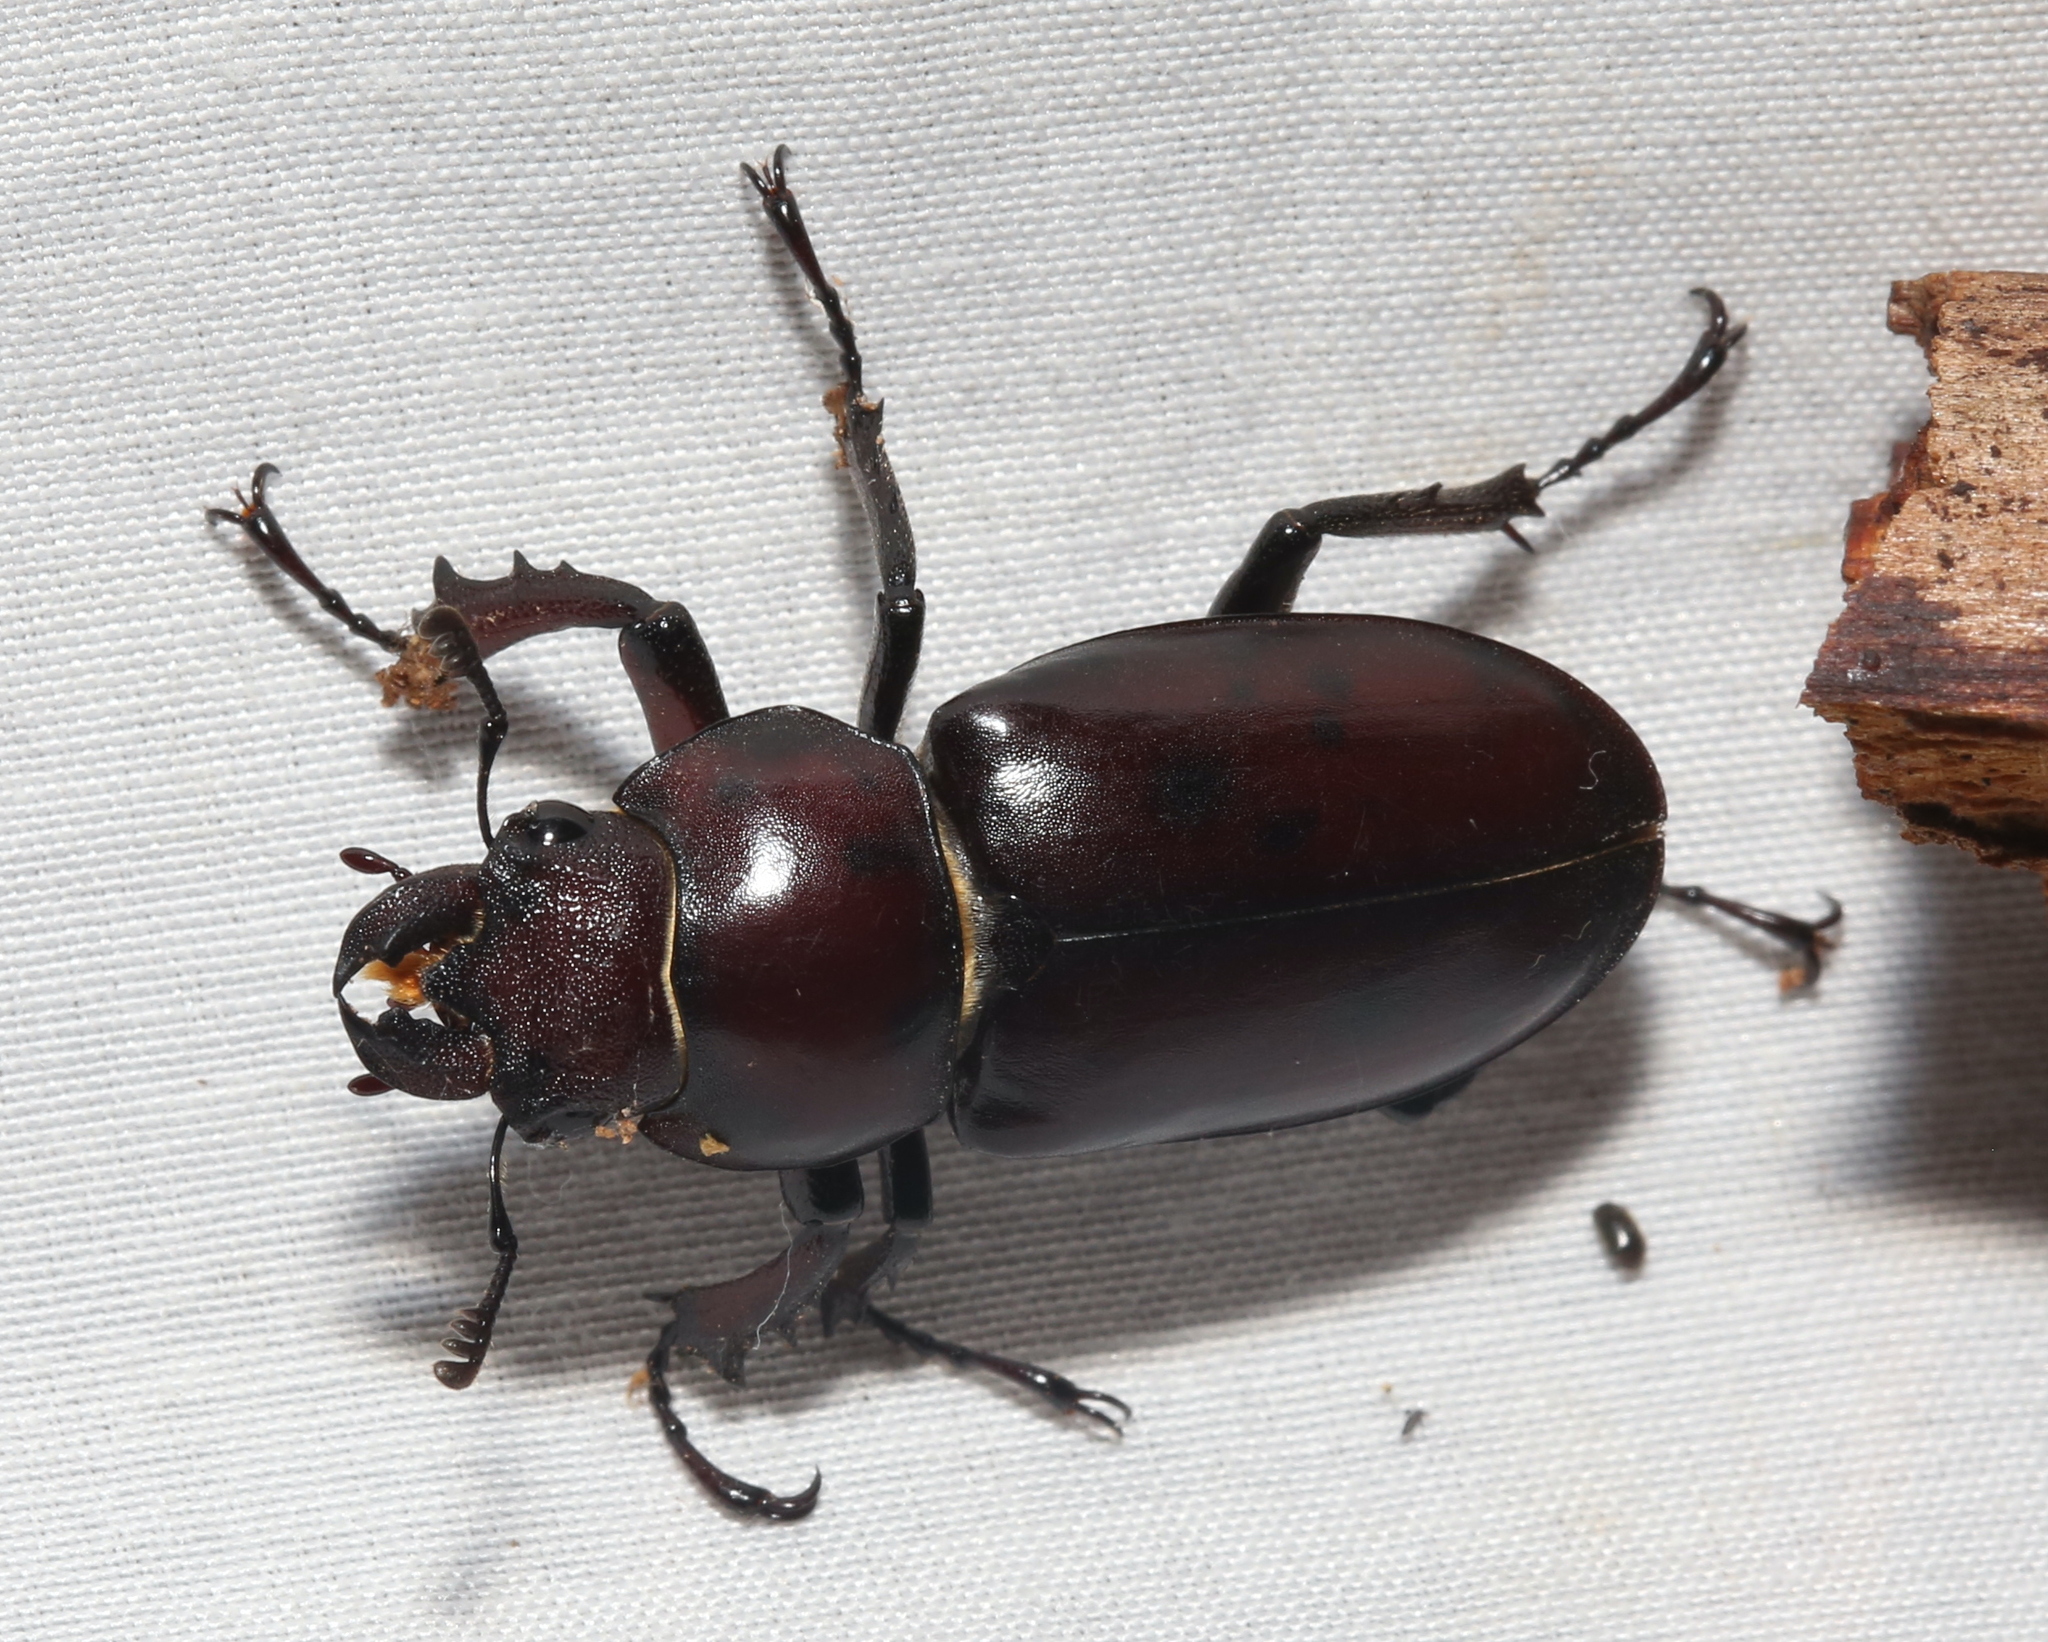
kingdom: Animalia
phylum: Arthropoda
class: Insecta
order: Coleoptera
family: Lucanidae
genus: Lucanus
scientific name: Lucanus elaphus
